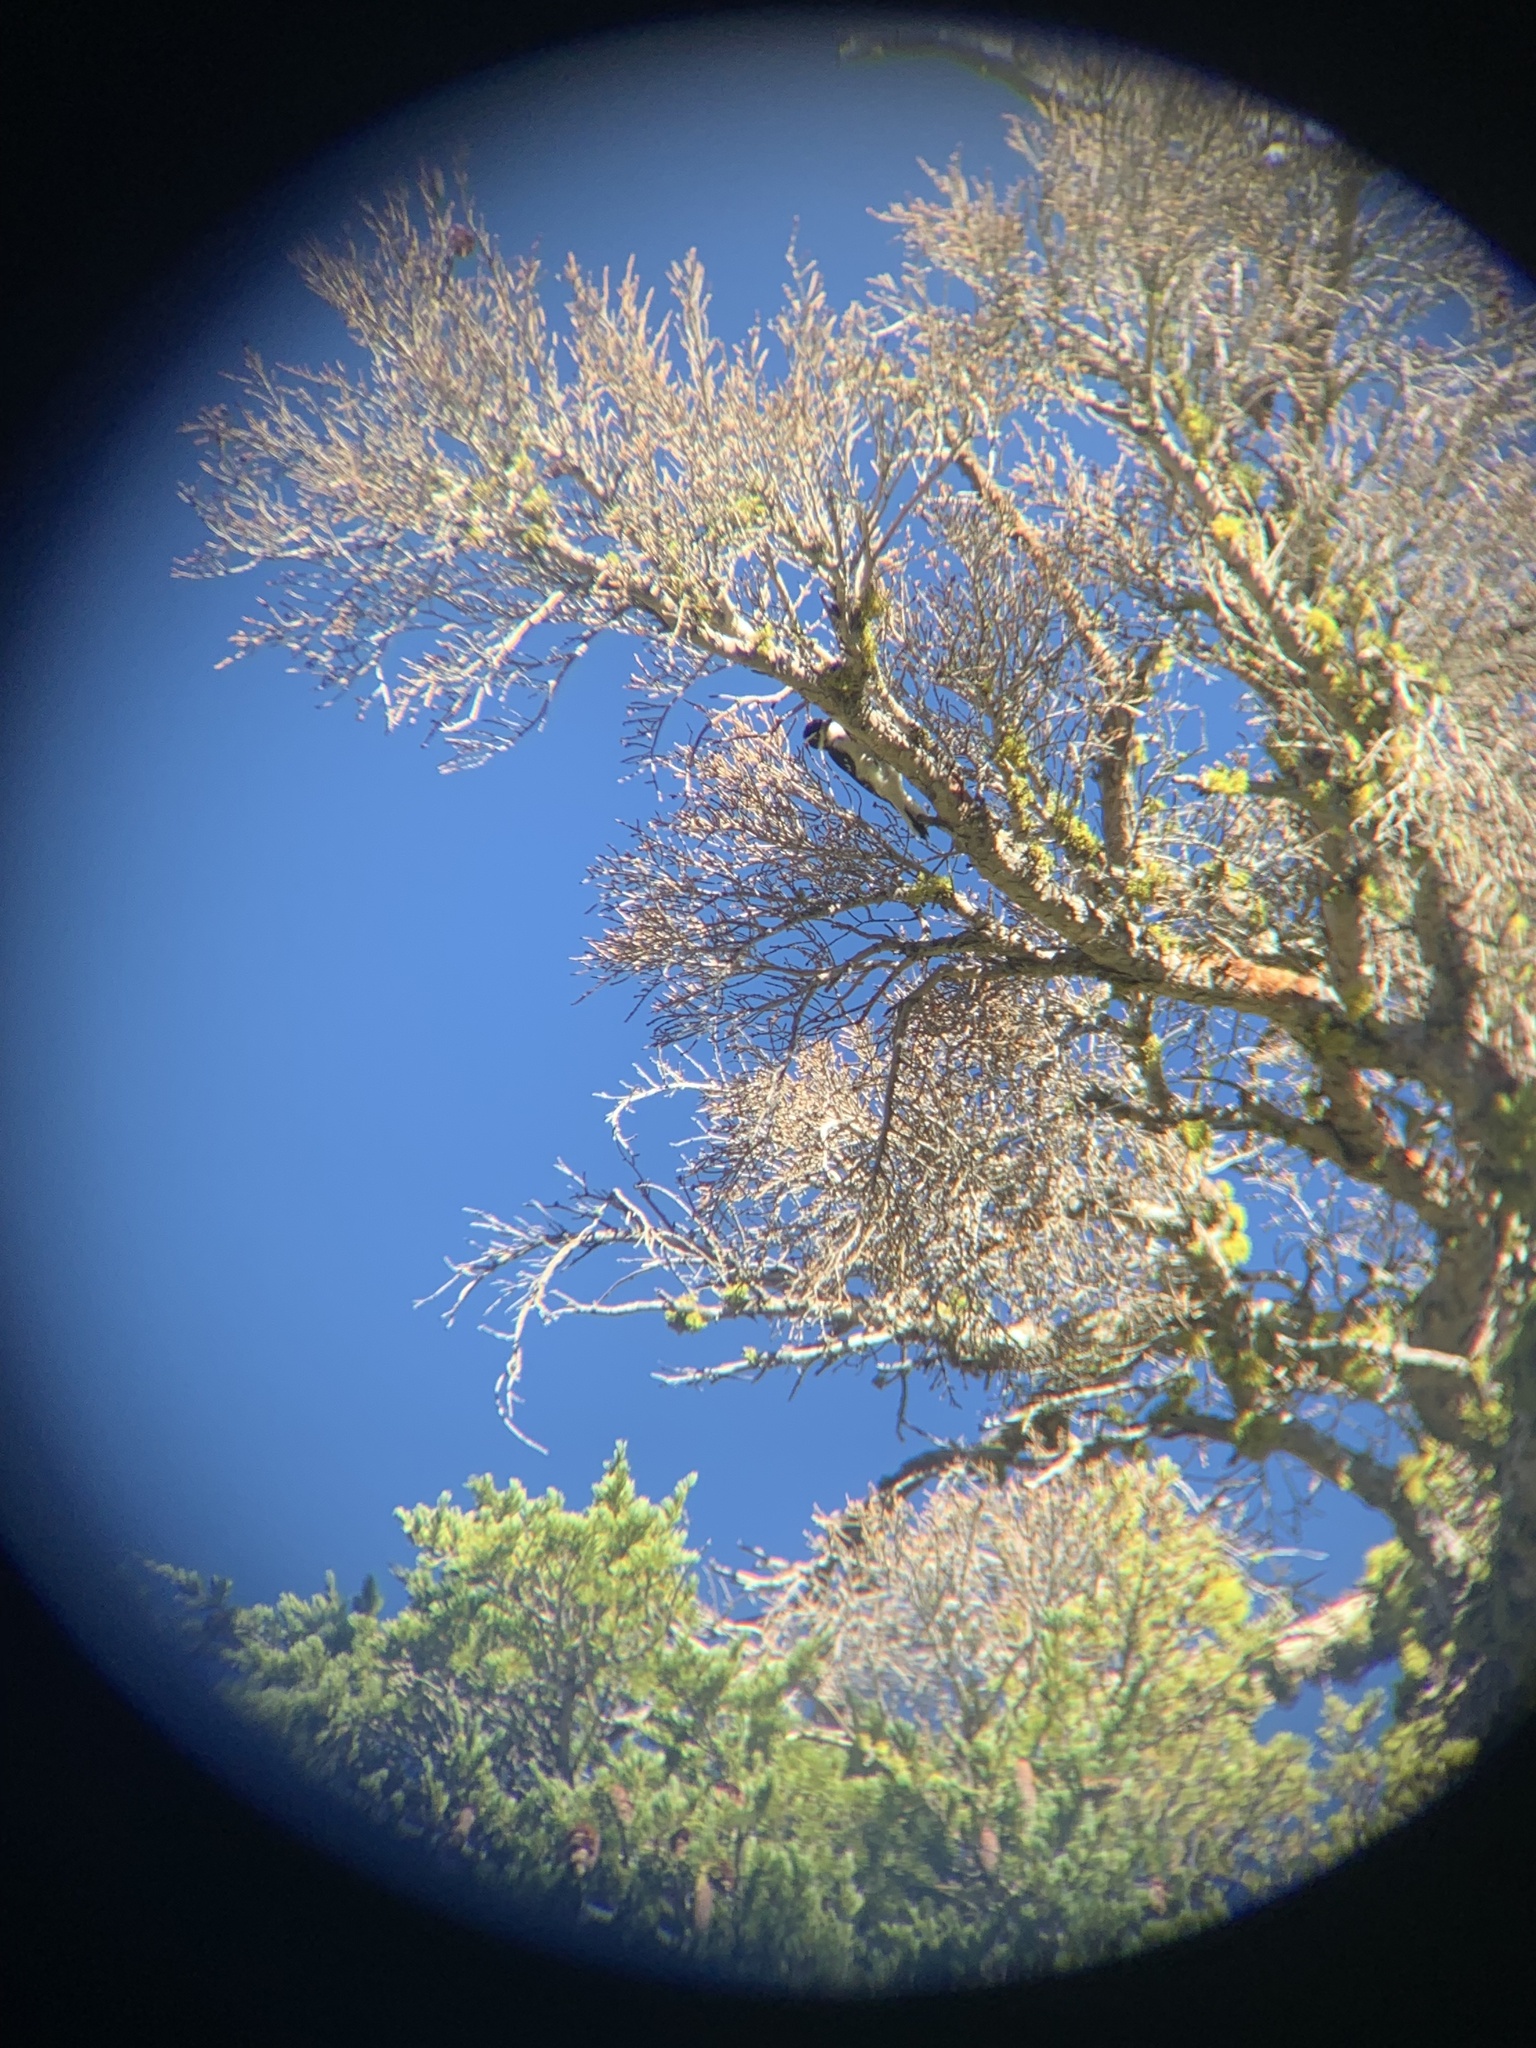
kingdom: Animalia
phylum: Chordata
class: Aves
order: Piciformes
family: Picidae
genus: Leuconotopicus
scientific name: Leuconotopicus villosus
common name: Hairy woodpecker
